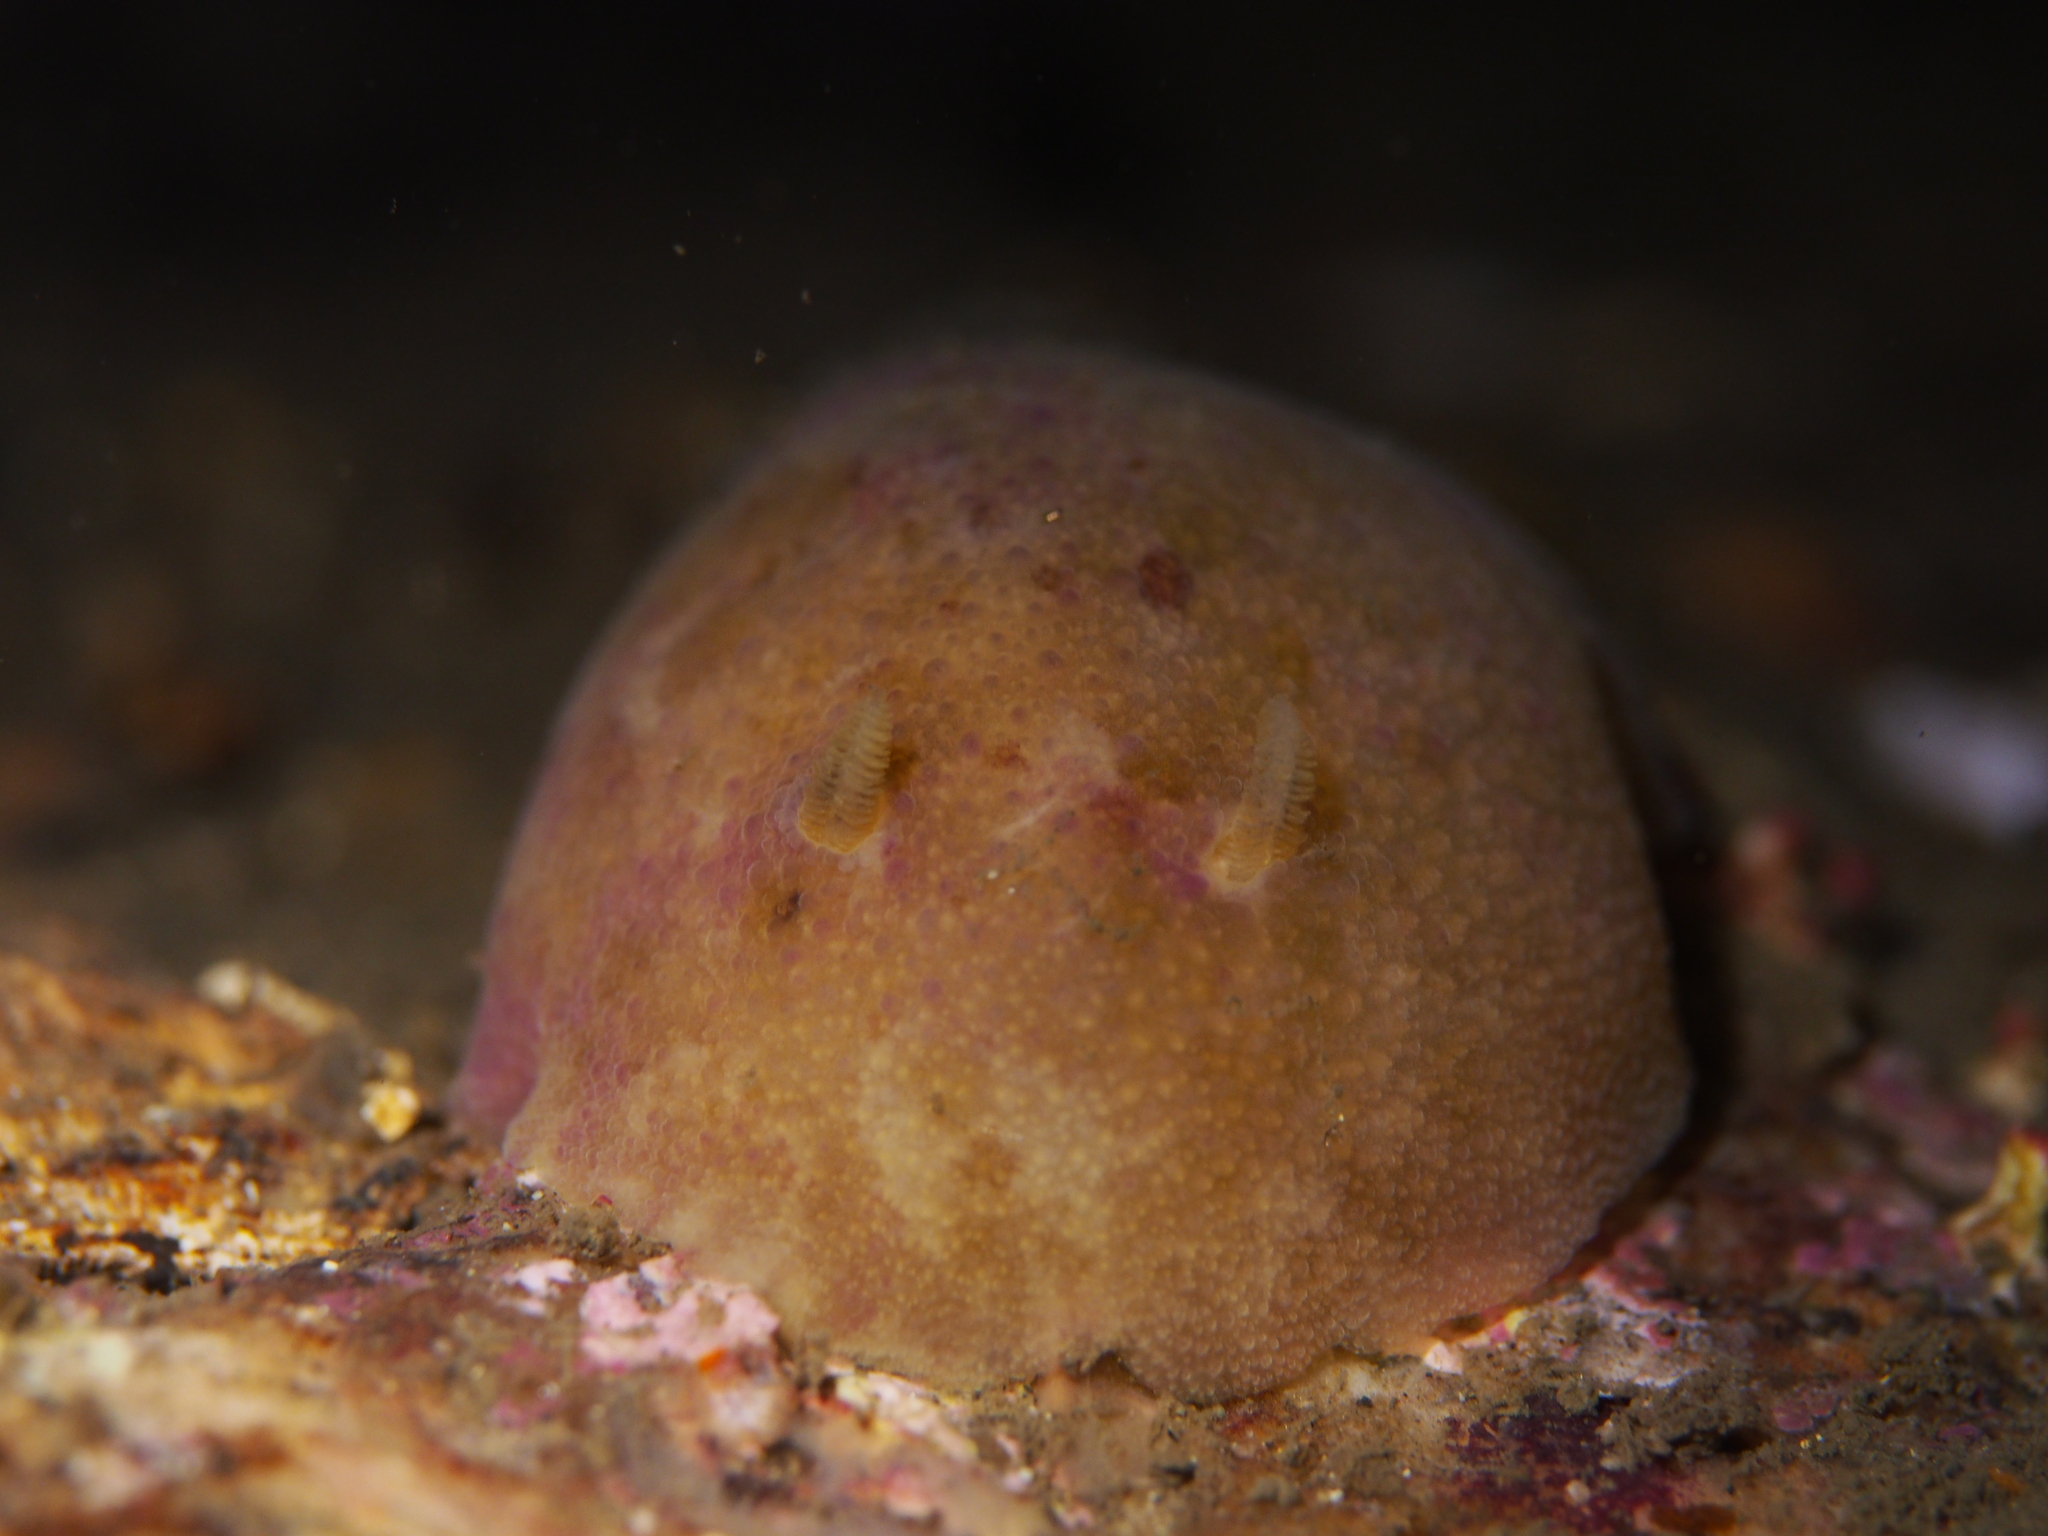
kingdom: Animalia
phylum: Mollusca
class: Gastropoda
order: Nudibranchia
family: Dorididae
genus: Doris
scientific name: Doris pseudoargus
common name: Sea lemon
